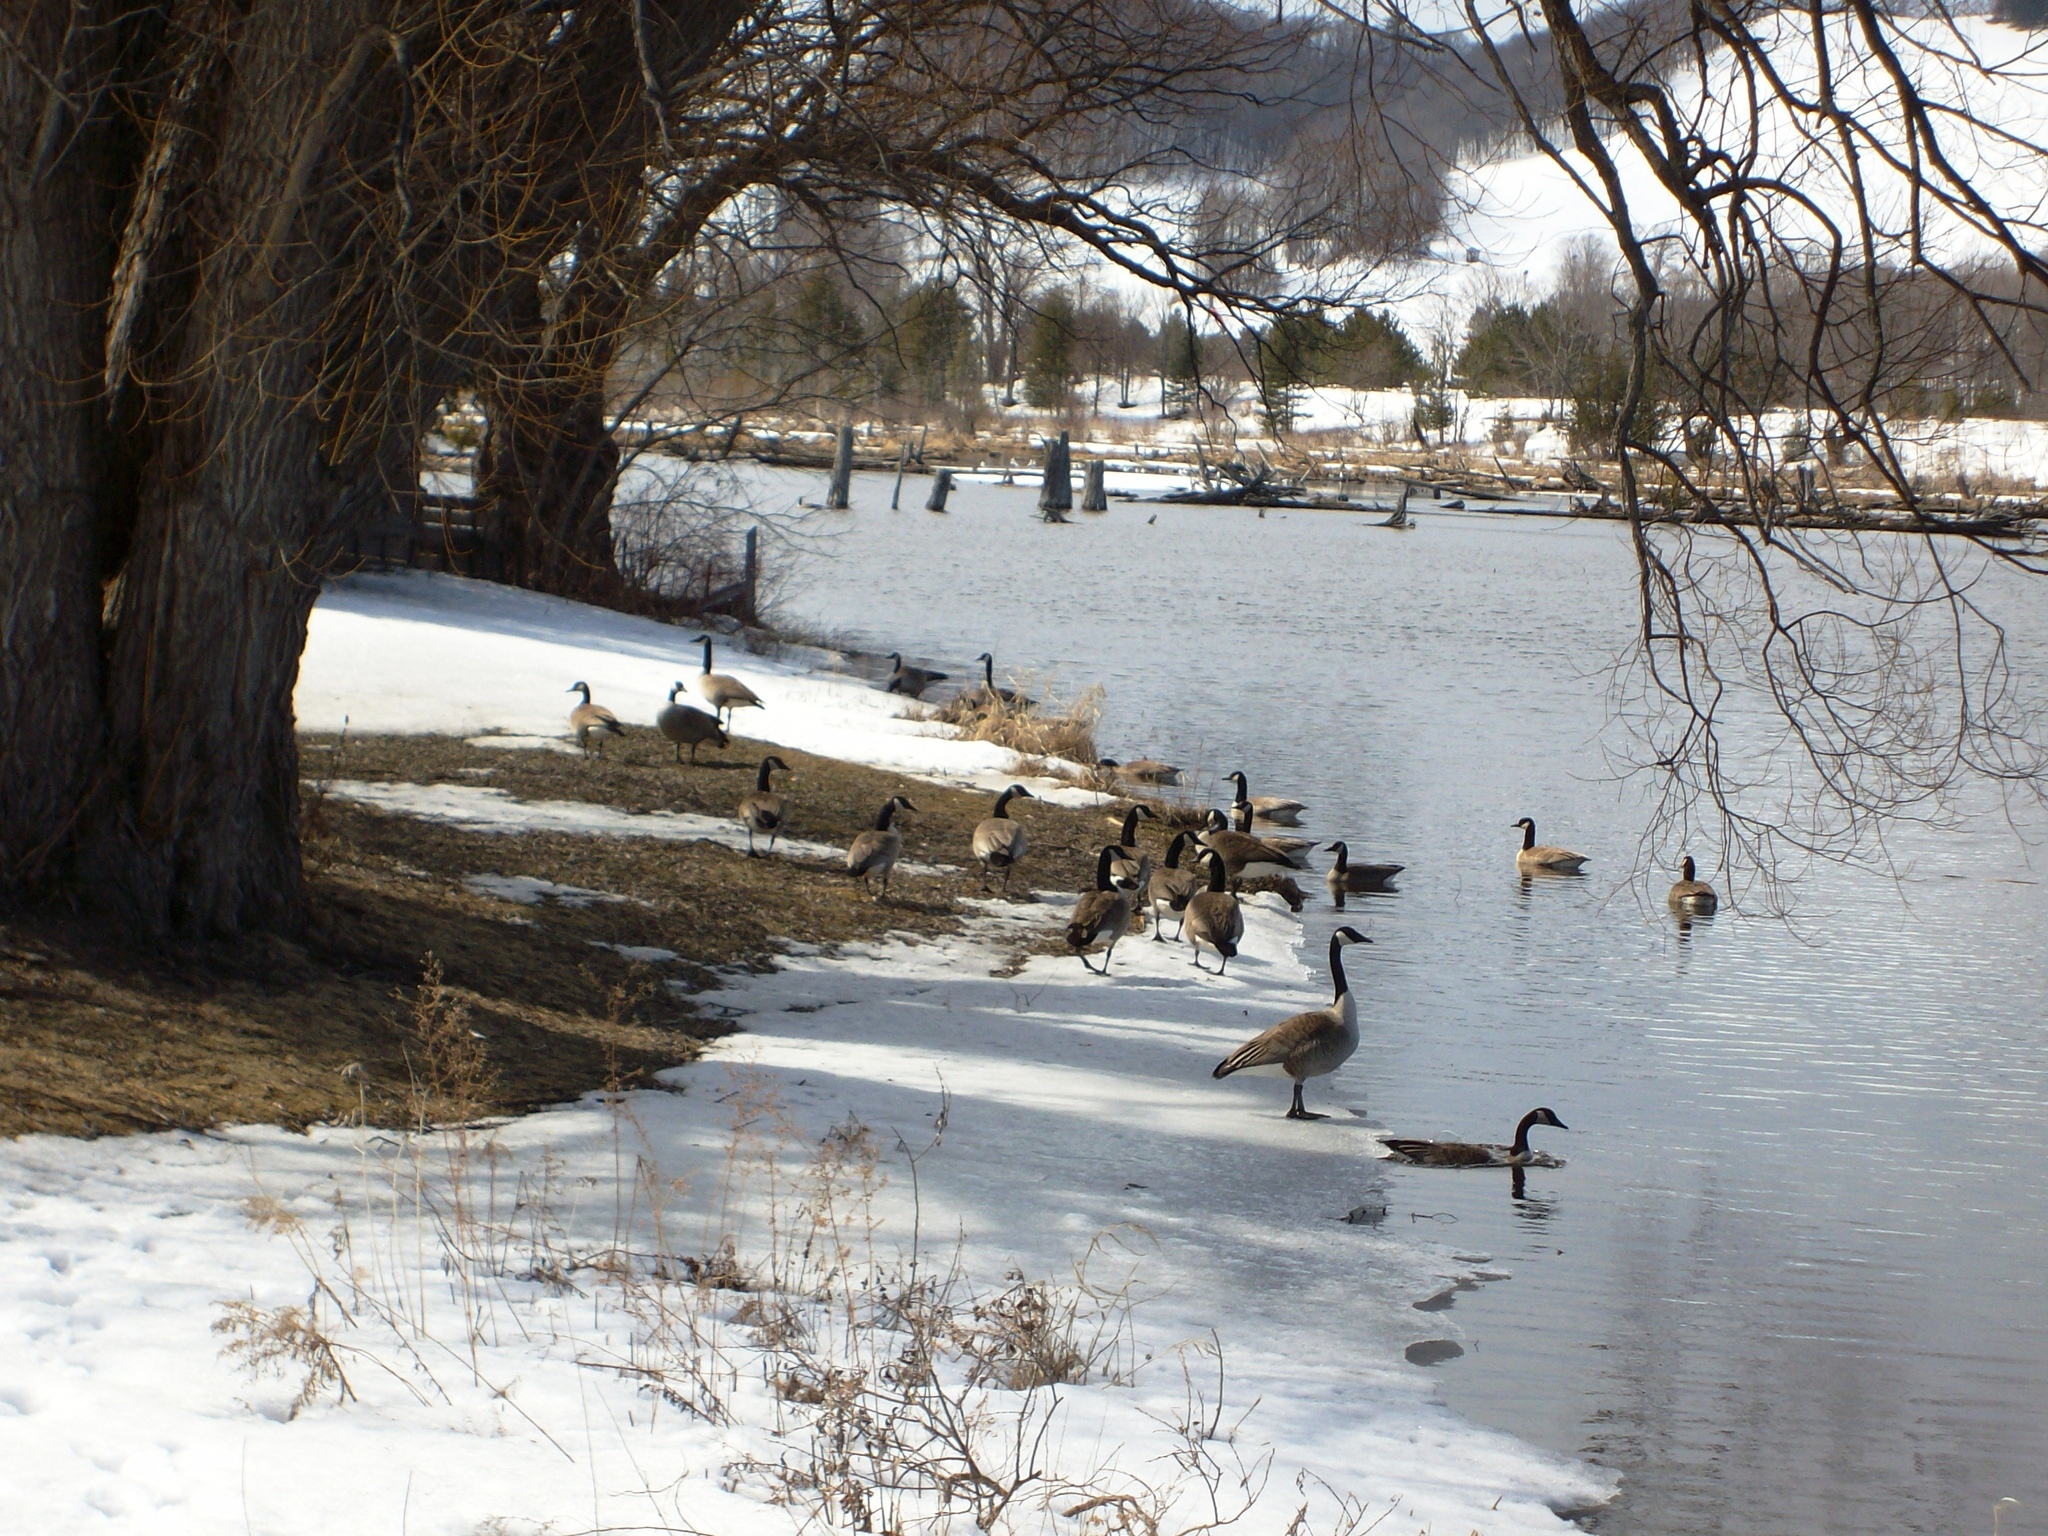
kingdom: Animalia
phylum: Chordata
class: Aves
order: Anseriformes
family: Anatidae
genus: Branta
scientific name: Branta canadensis
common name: Canada goose
